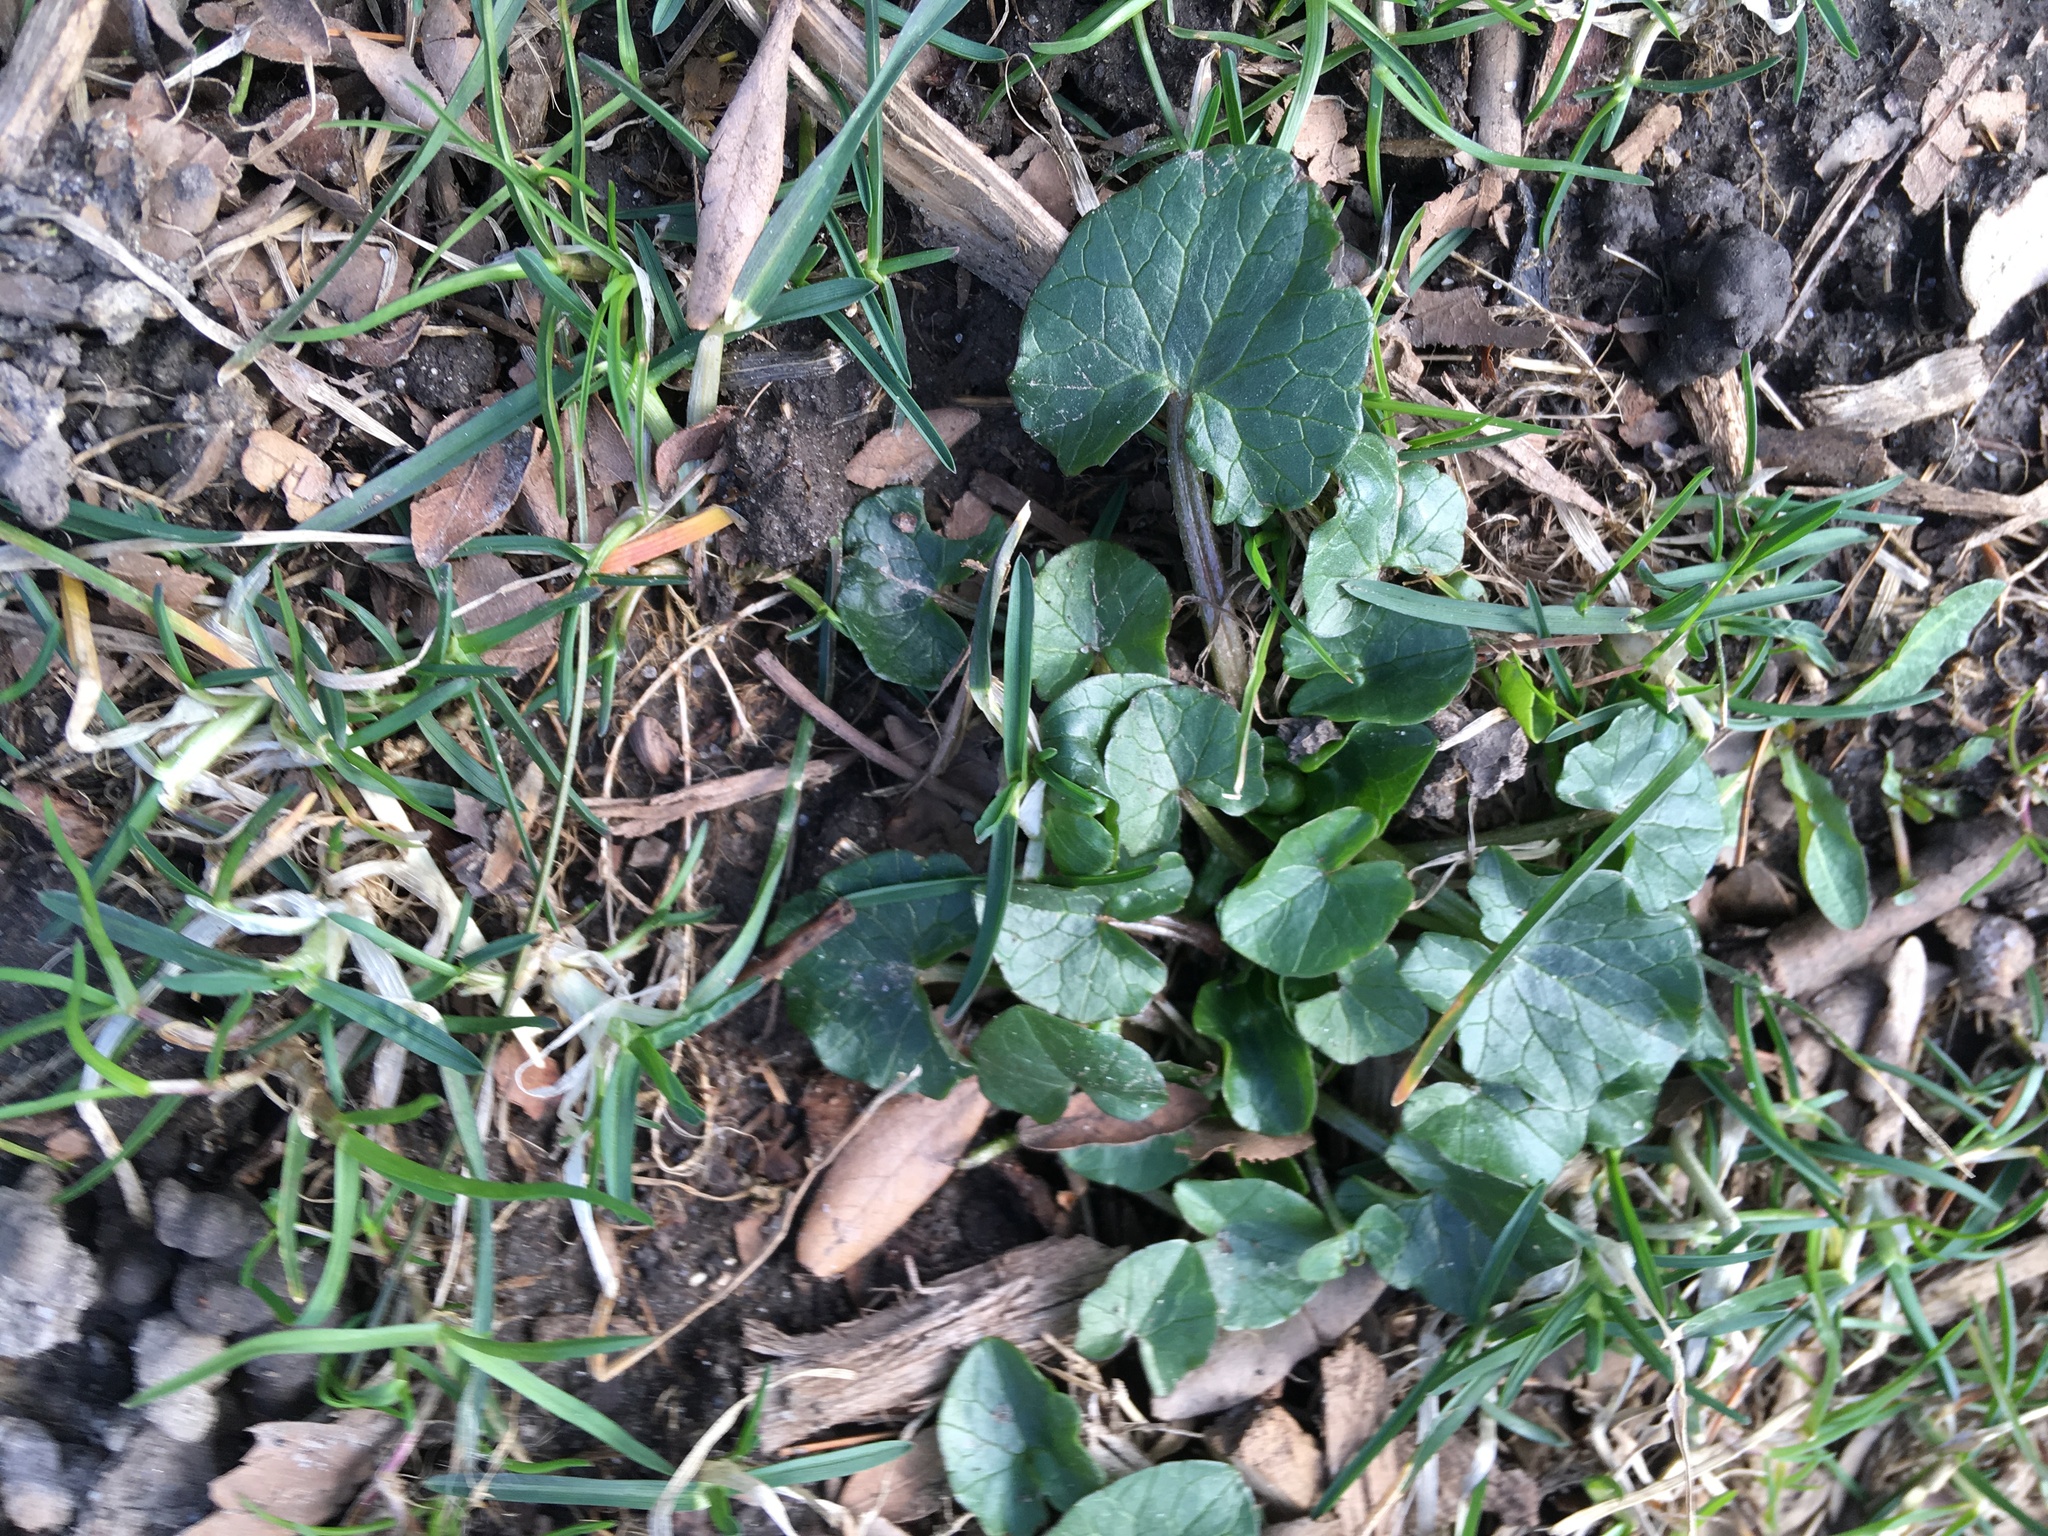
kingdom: Plantae
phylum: Tracheophyta
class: Magnoliopsida
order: Ranunculales
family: Ranunculaceae
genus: Ficaria
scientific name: Ficaria verna
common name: Lesser celandine
